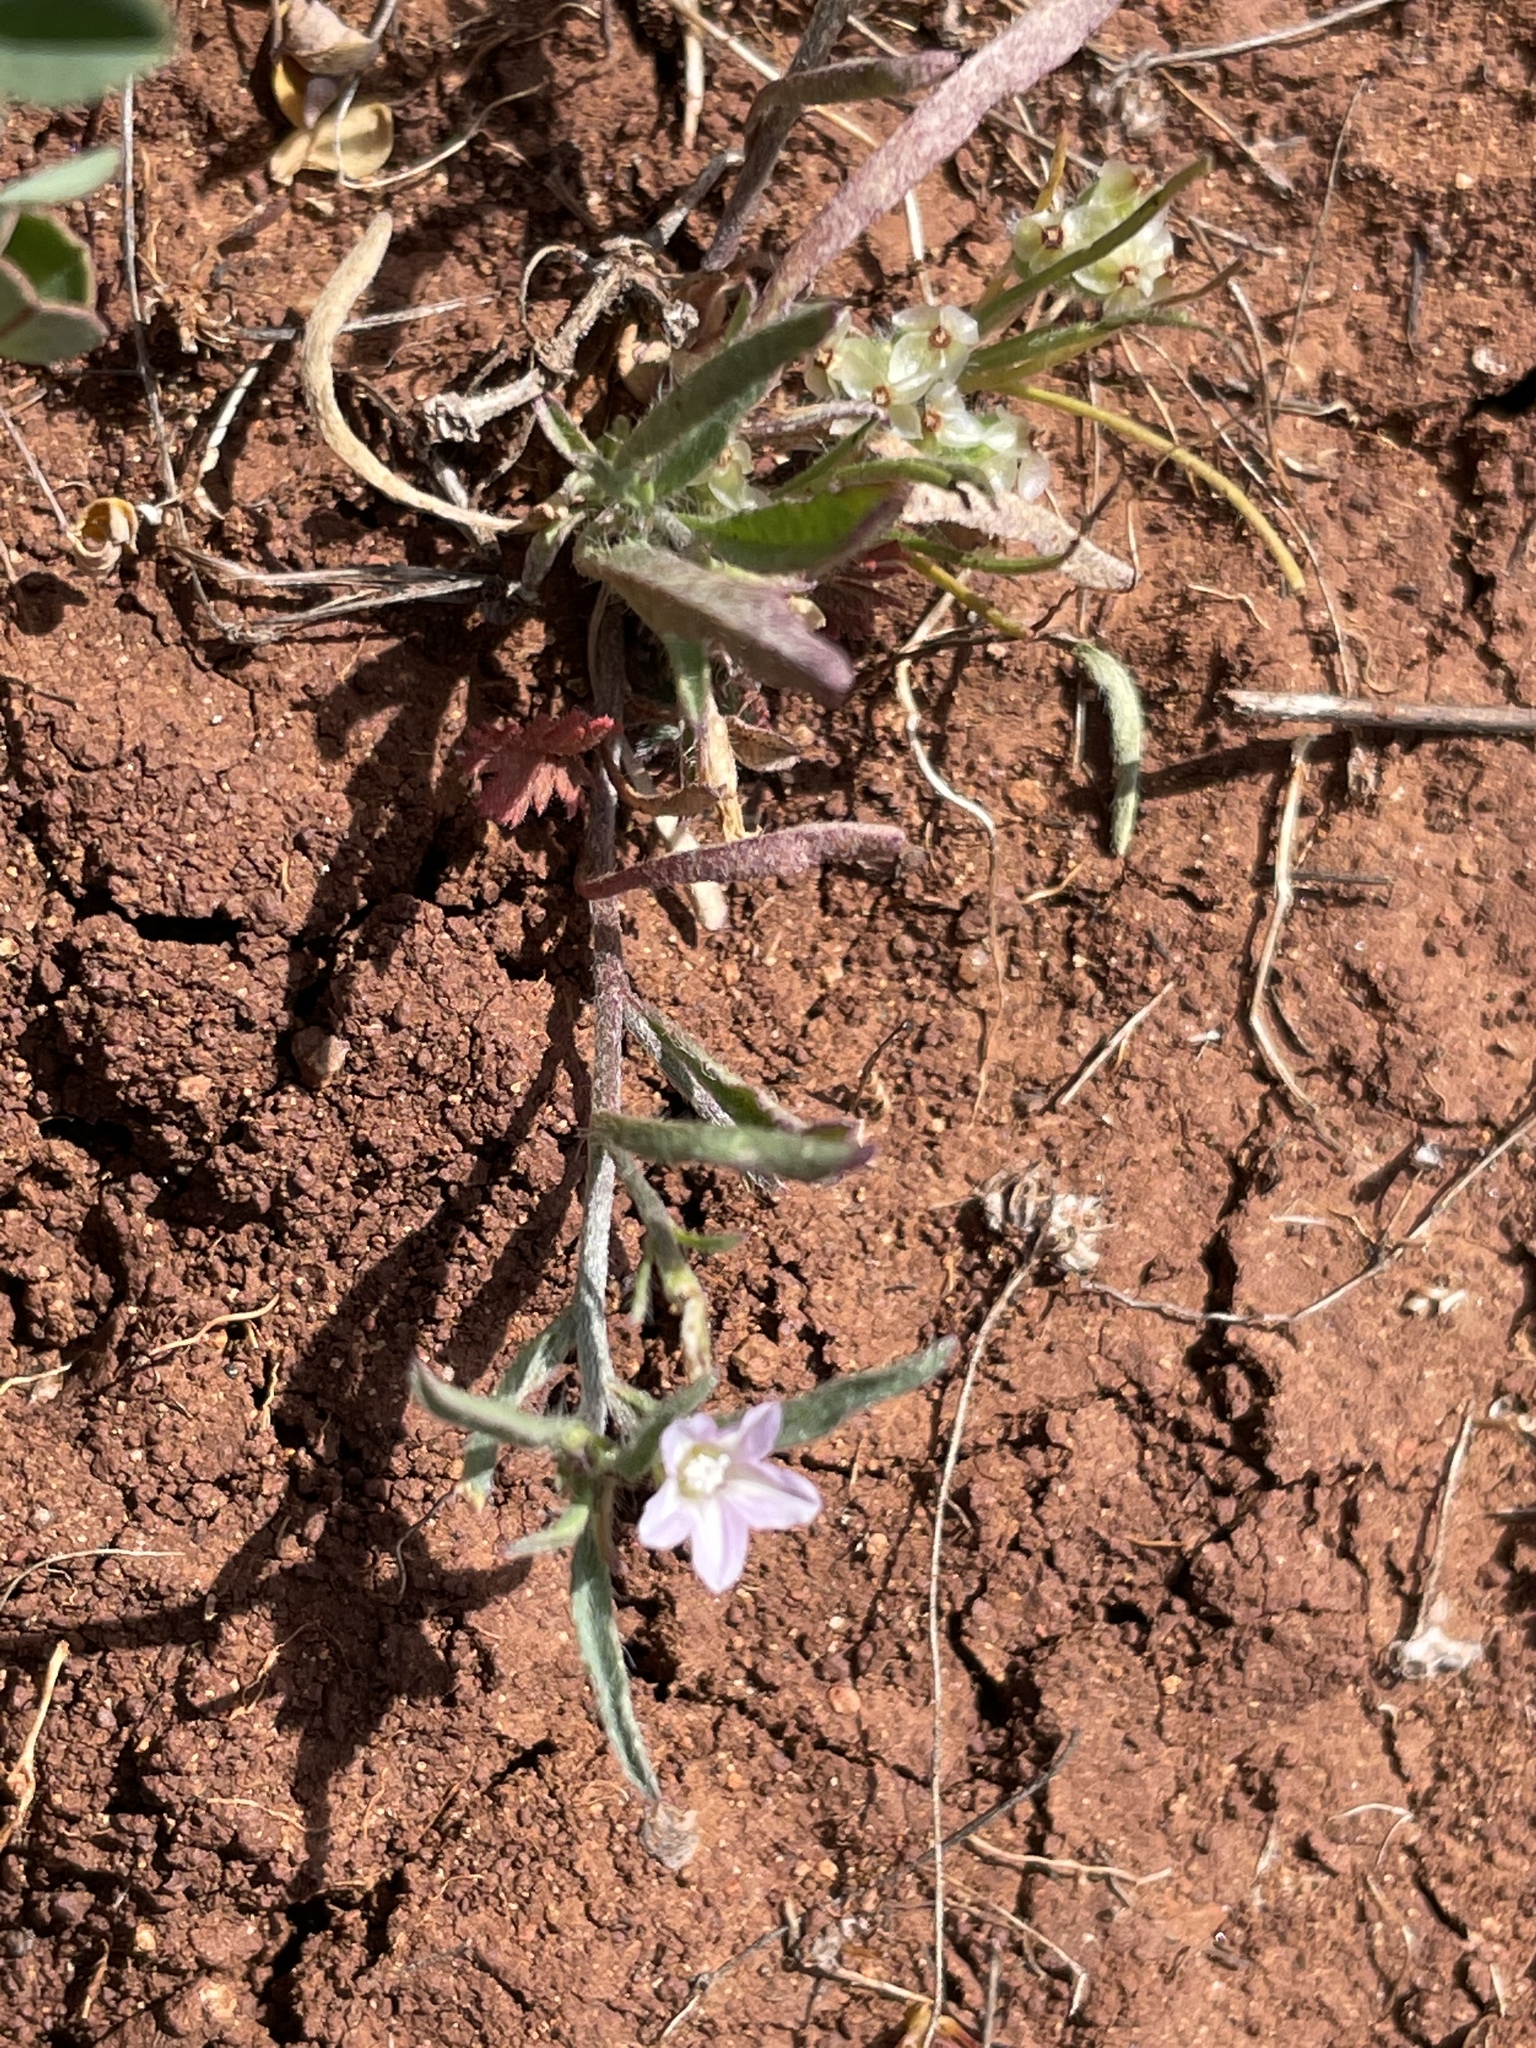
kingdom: Plantae
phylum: Tracheophyta
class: Magnoliopsida
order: Solanales
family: Convolvulaceae
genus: Convolvulus
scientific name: Convolvulus simulans
